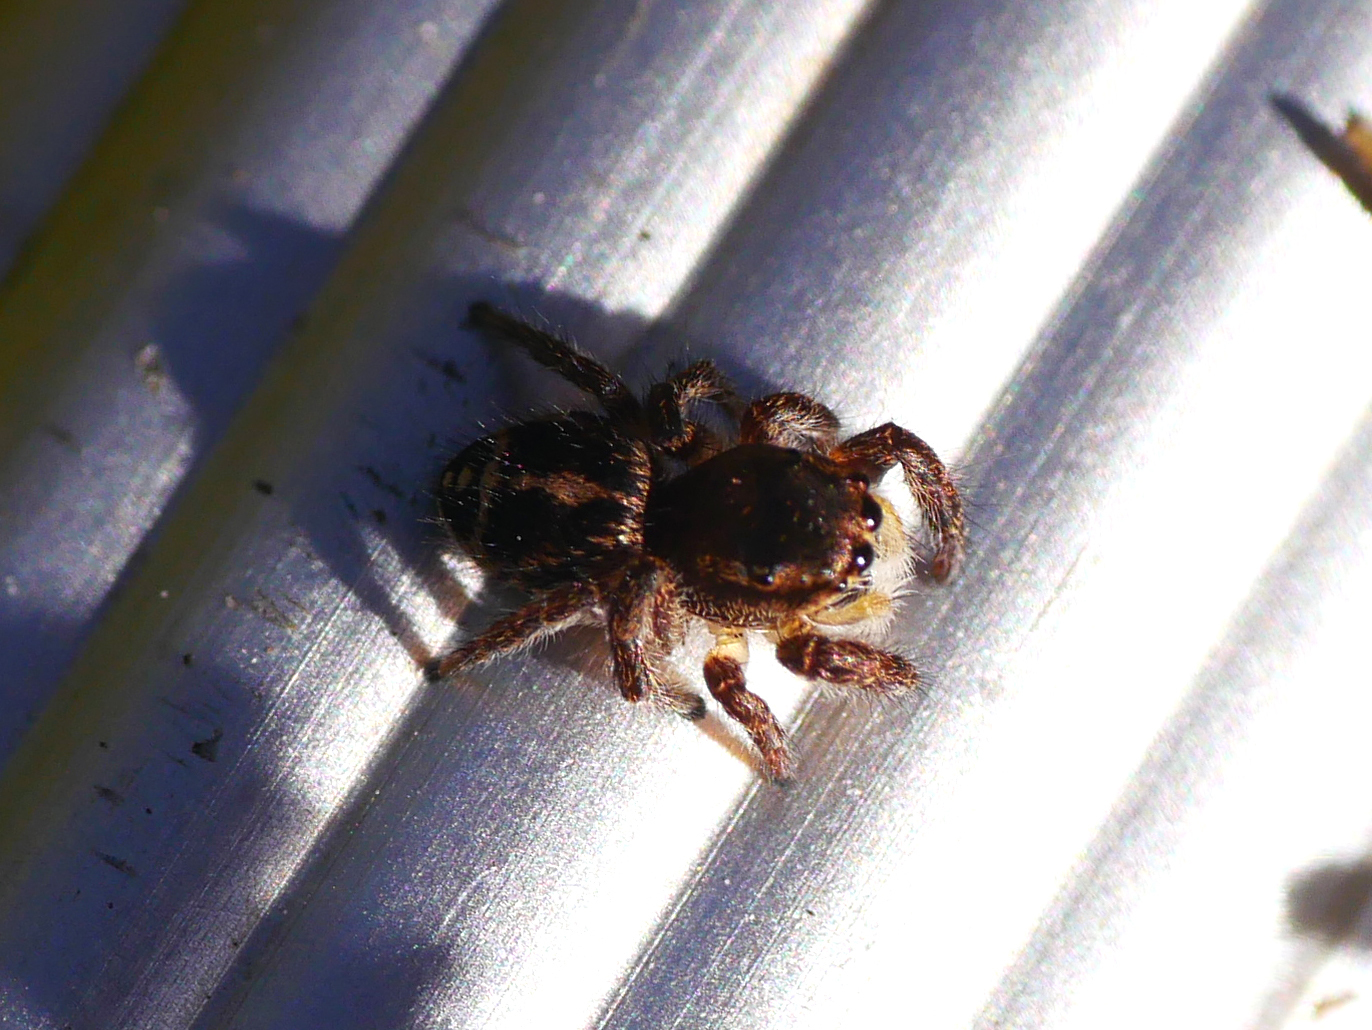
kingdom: Animalia
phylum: Arthropoda
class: Arachnida
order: Araneae
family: Salticidae
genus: Pellenes
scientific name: Pellenes tripunctatus
